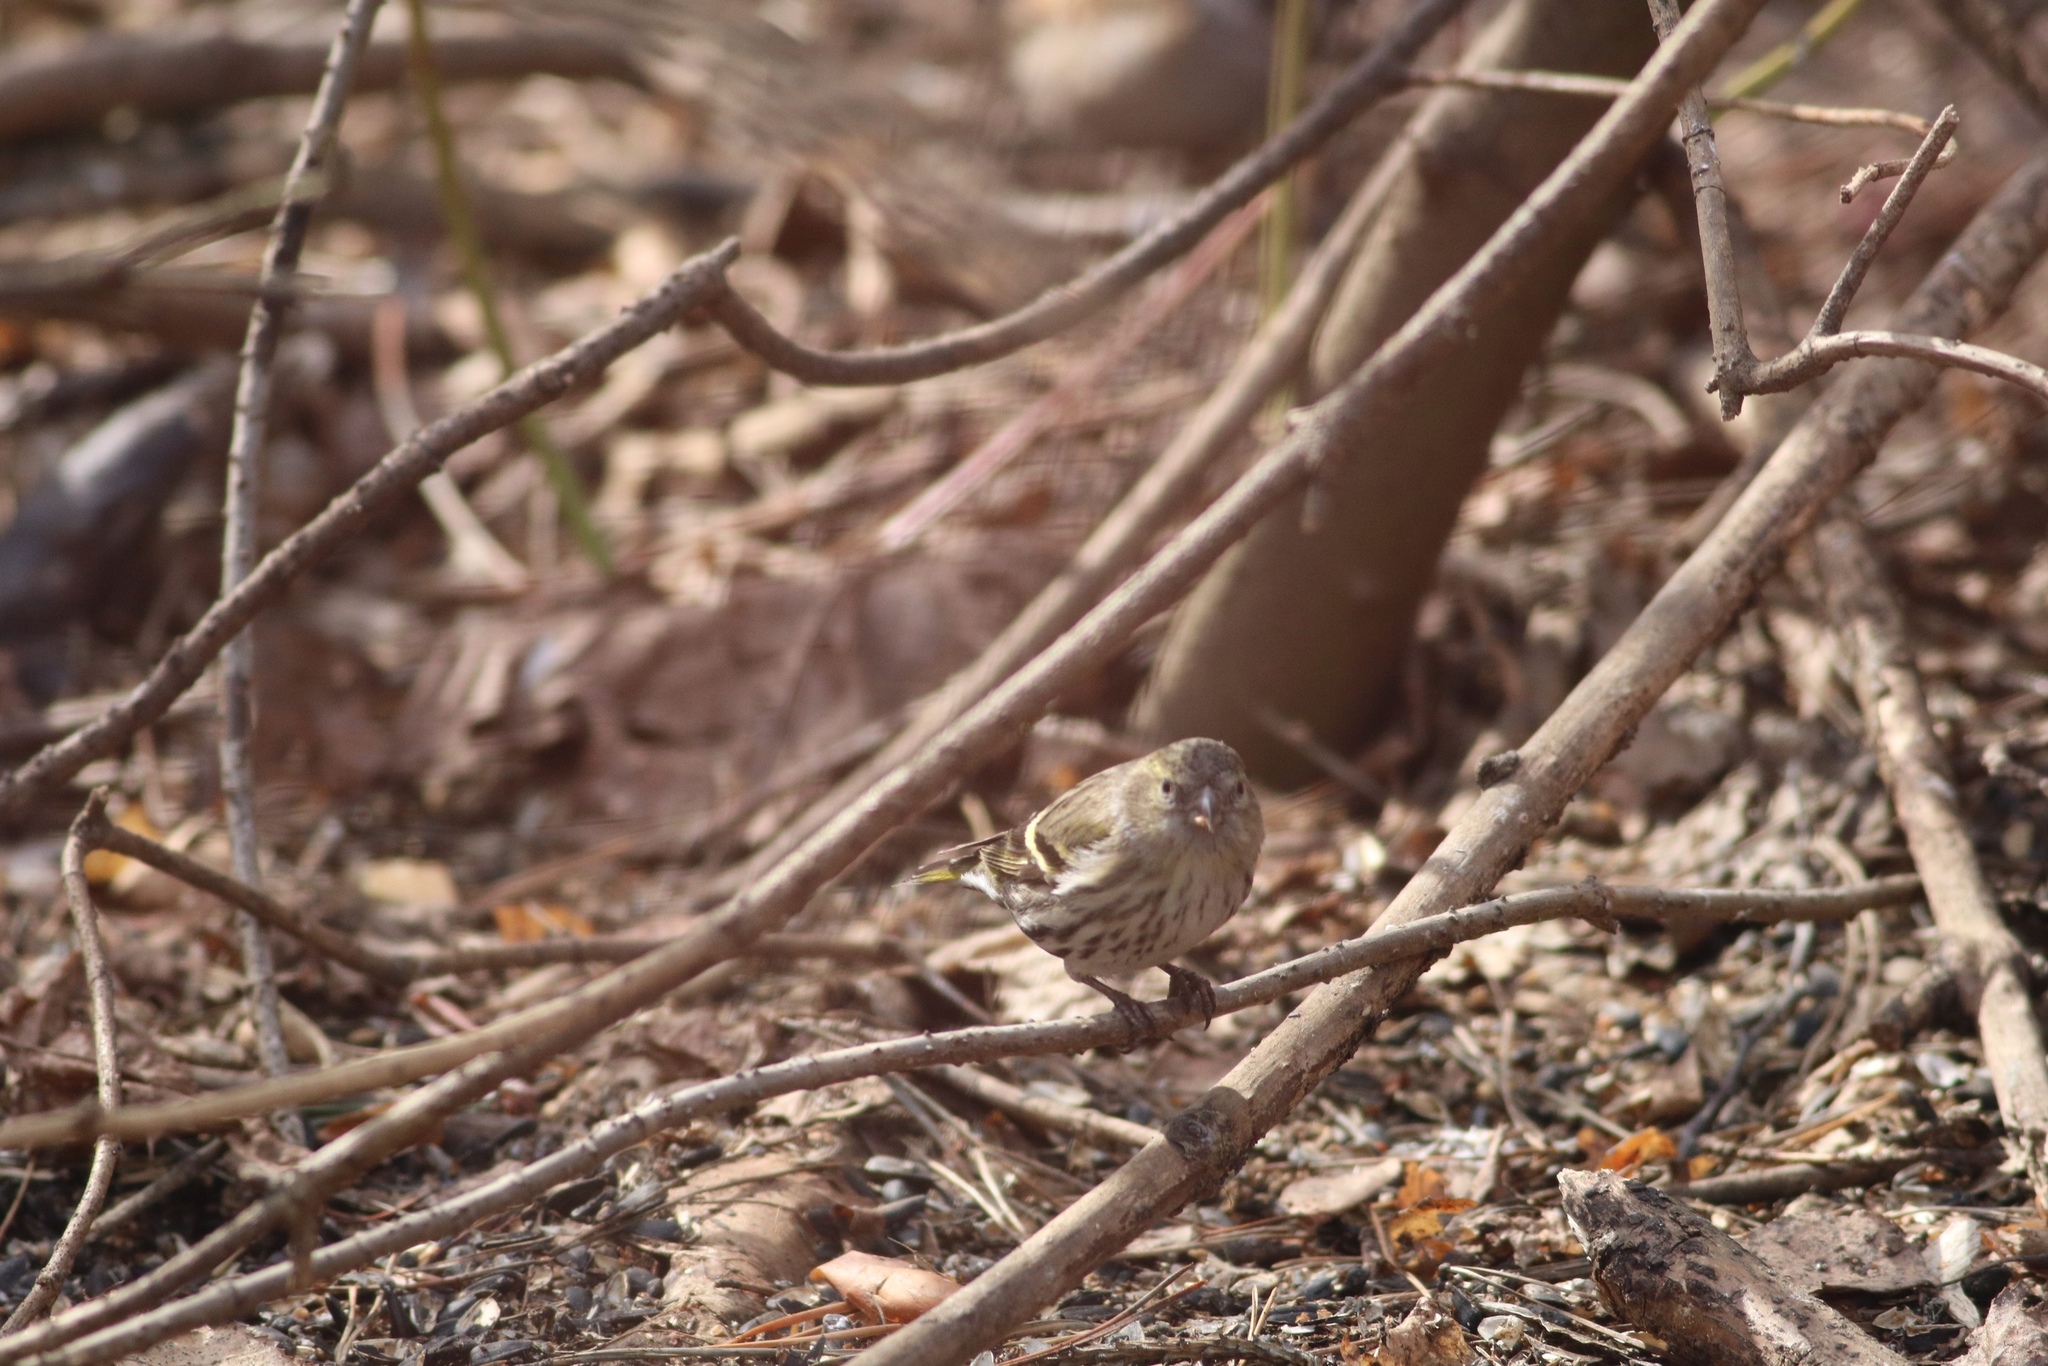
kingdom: Animalia
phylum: Chordata
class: Aves
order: Passeriformes
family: Fringillidae
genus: Spinus
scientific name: Spinus spinus
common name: Eurasian siskin
